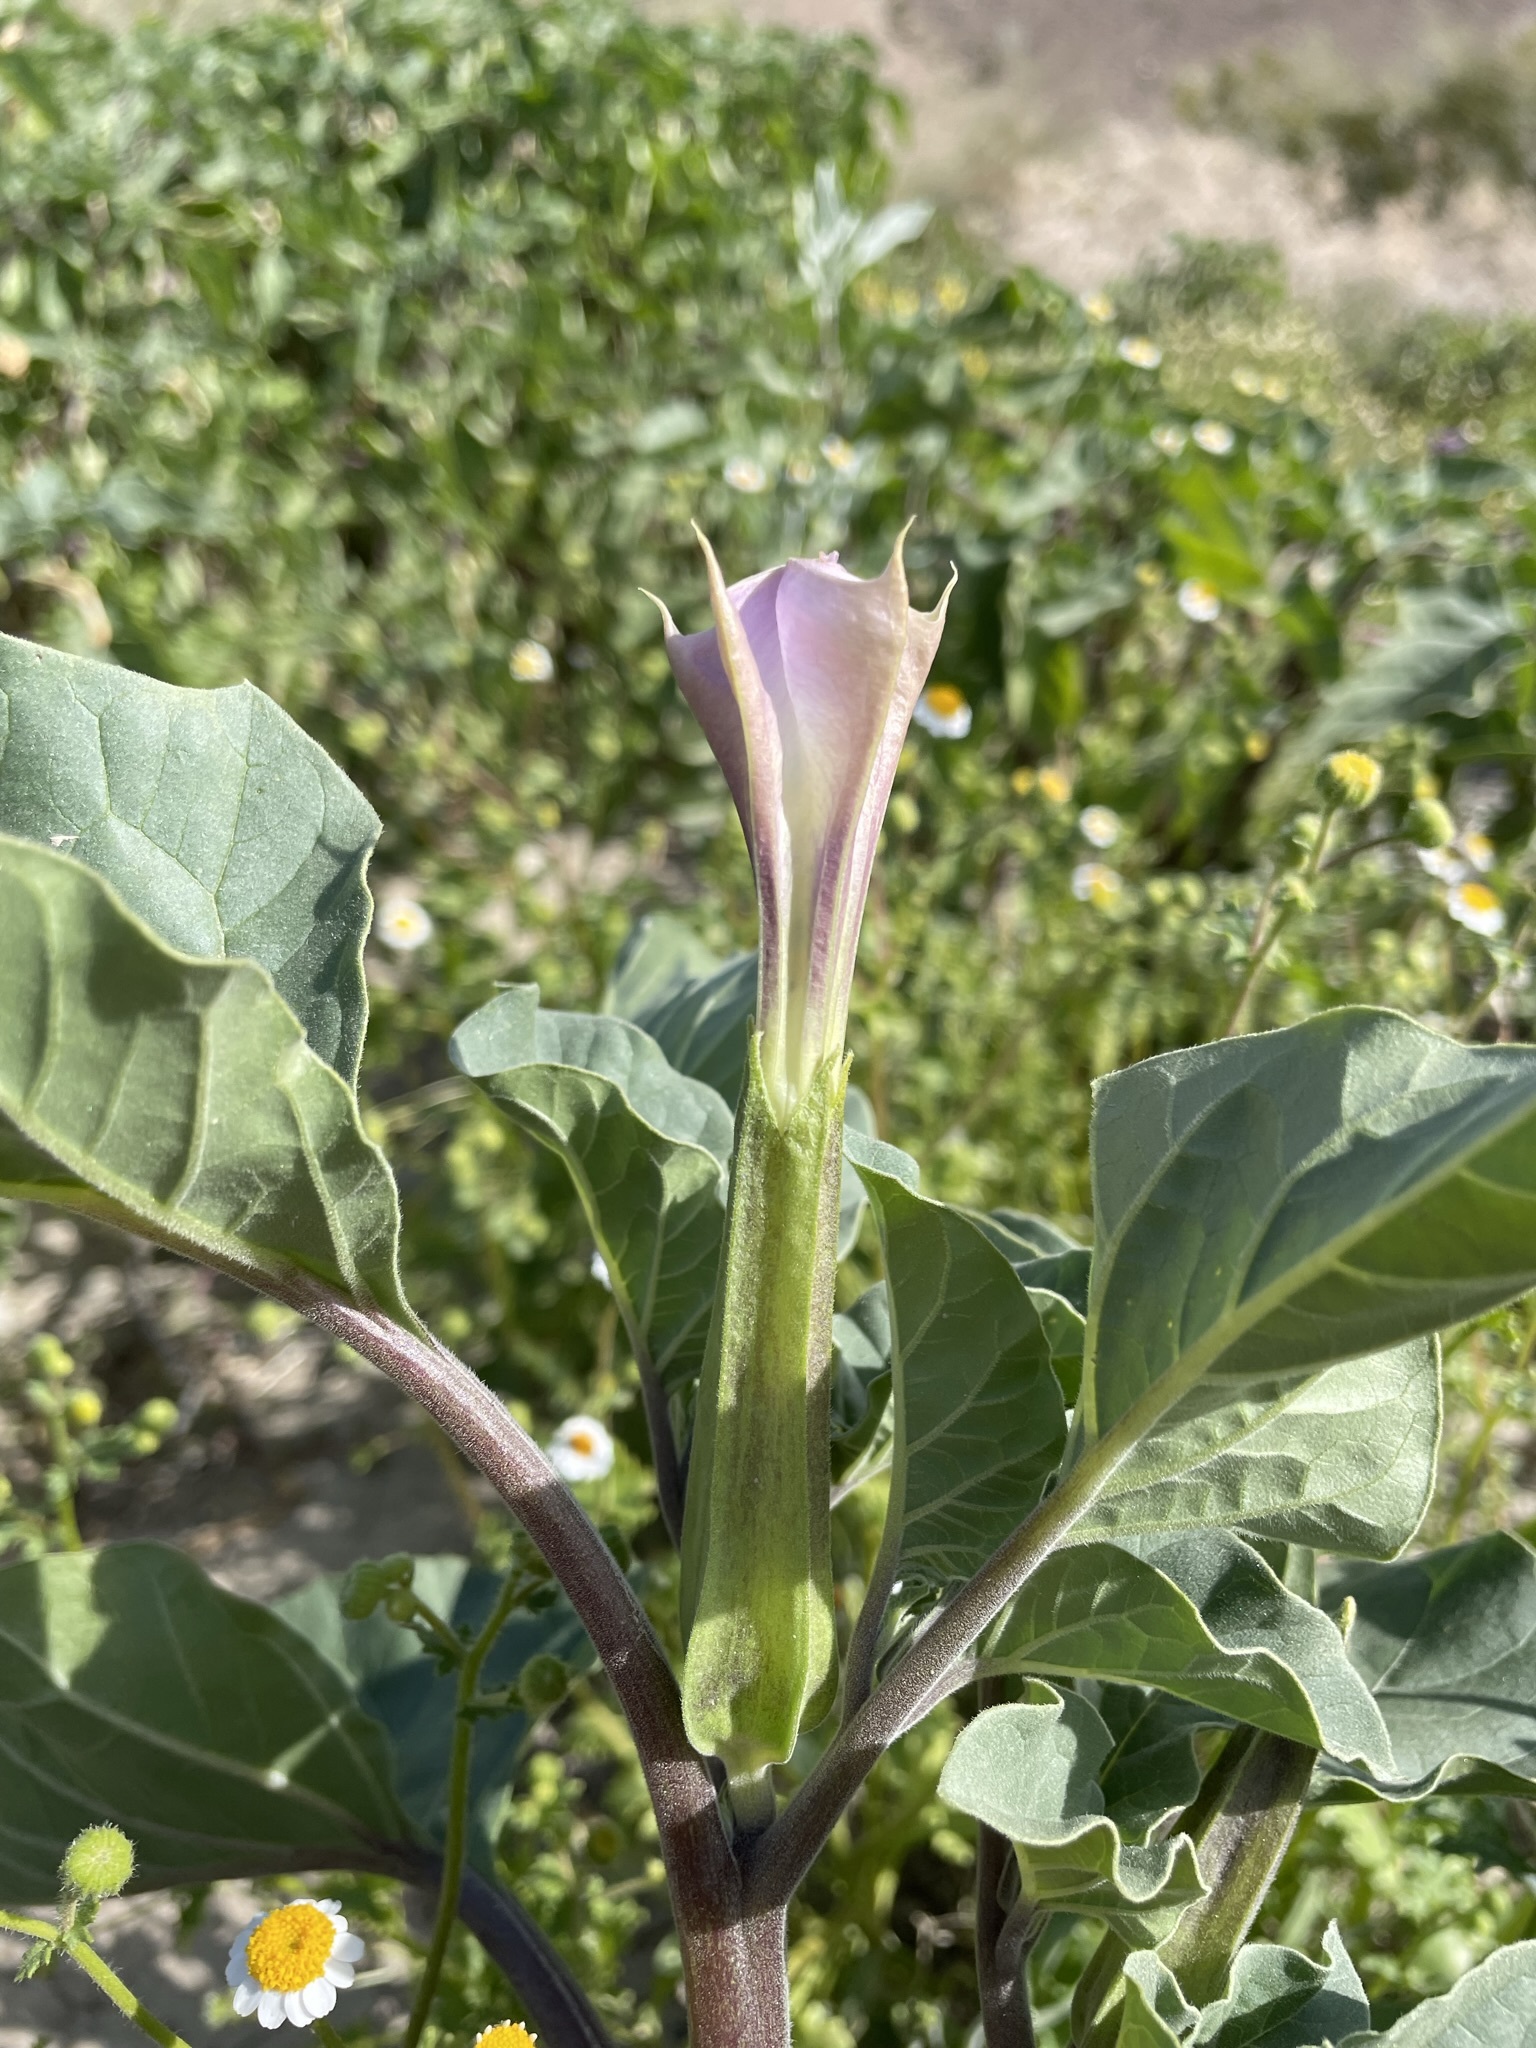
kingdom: Plantae
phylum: Tracheophyta
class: Magnoliopsida
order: Solanales
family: Solanaceae
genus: Datura
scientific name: Datura discolor
